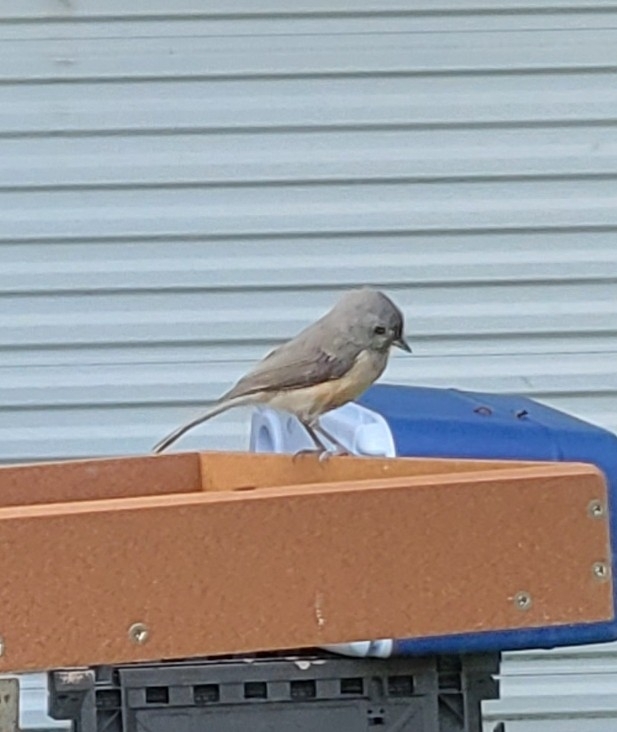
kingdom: Animalia
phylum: Chordata
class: Aves
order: Passeriformes
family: Paridae
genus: Baeolophus
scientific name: Baeolophus bicolor
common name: Tufted titmouse
